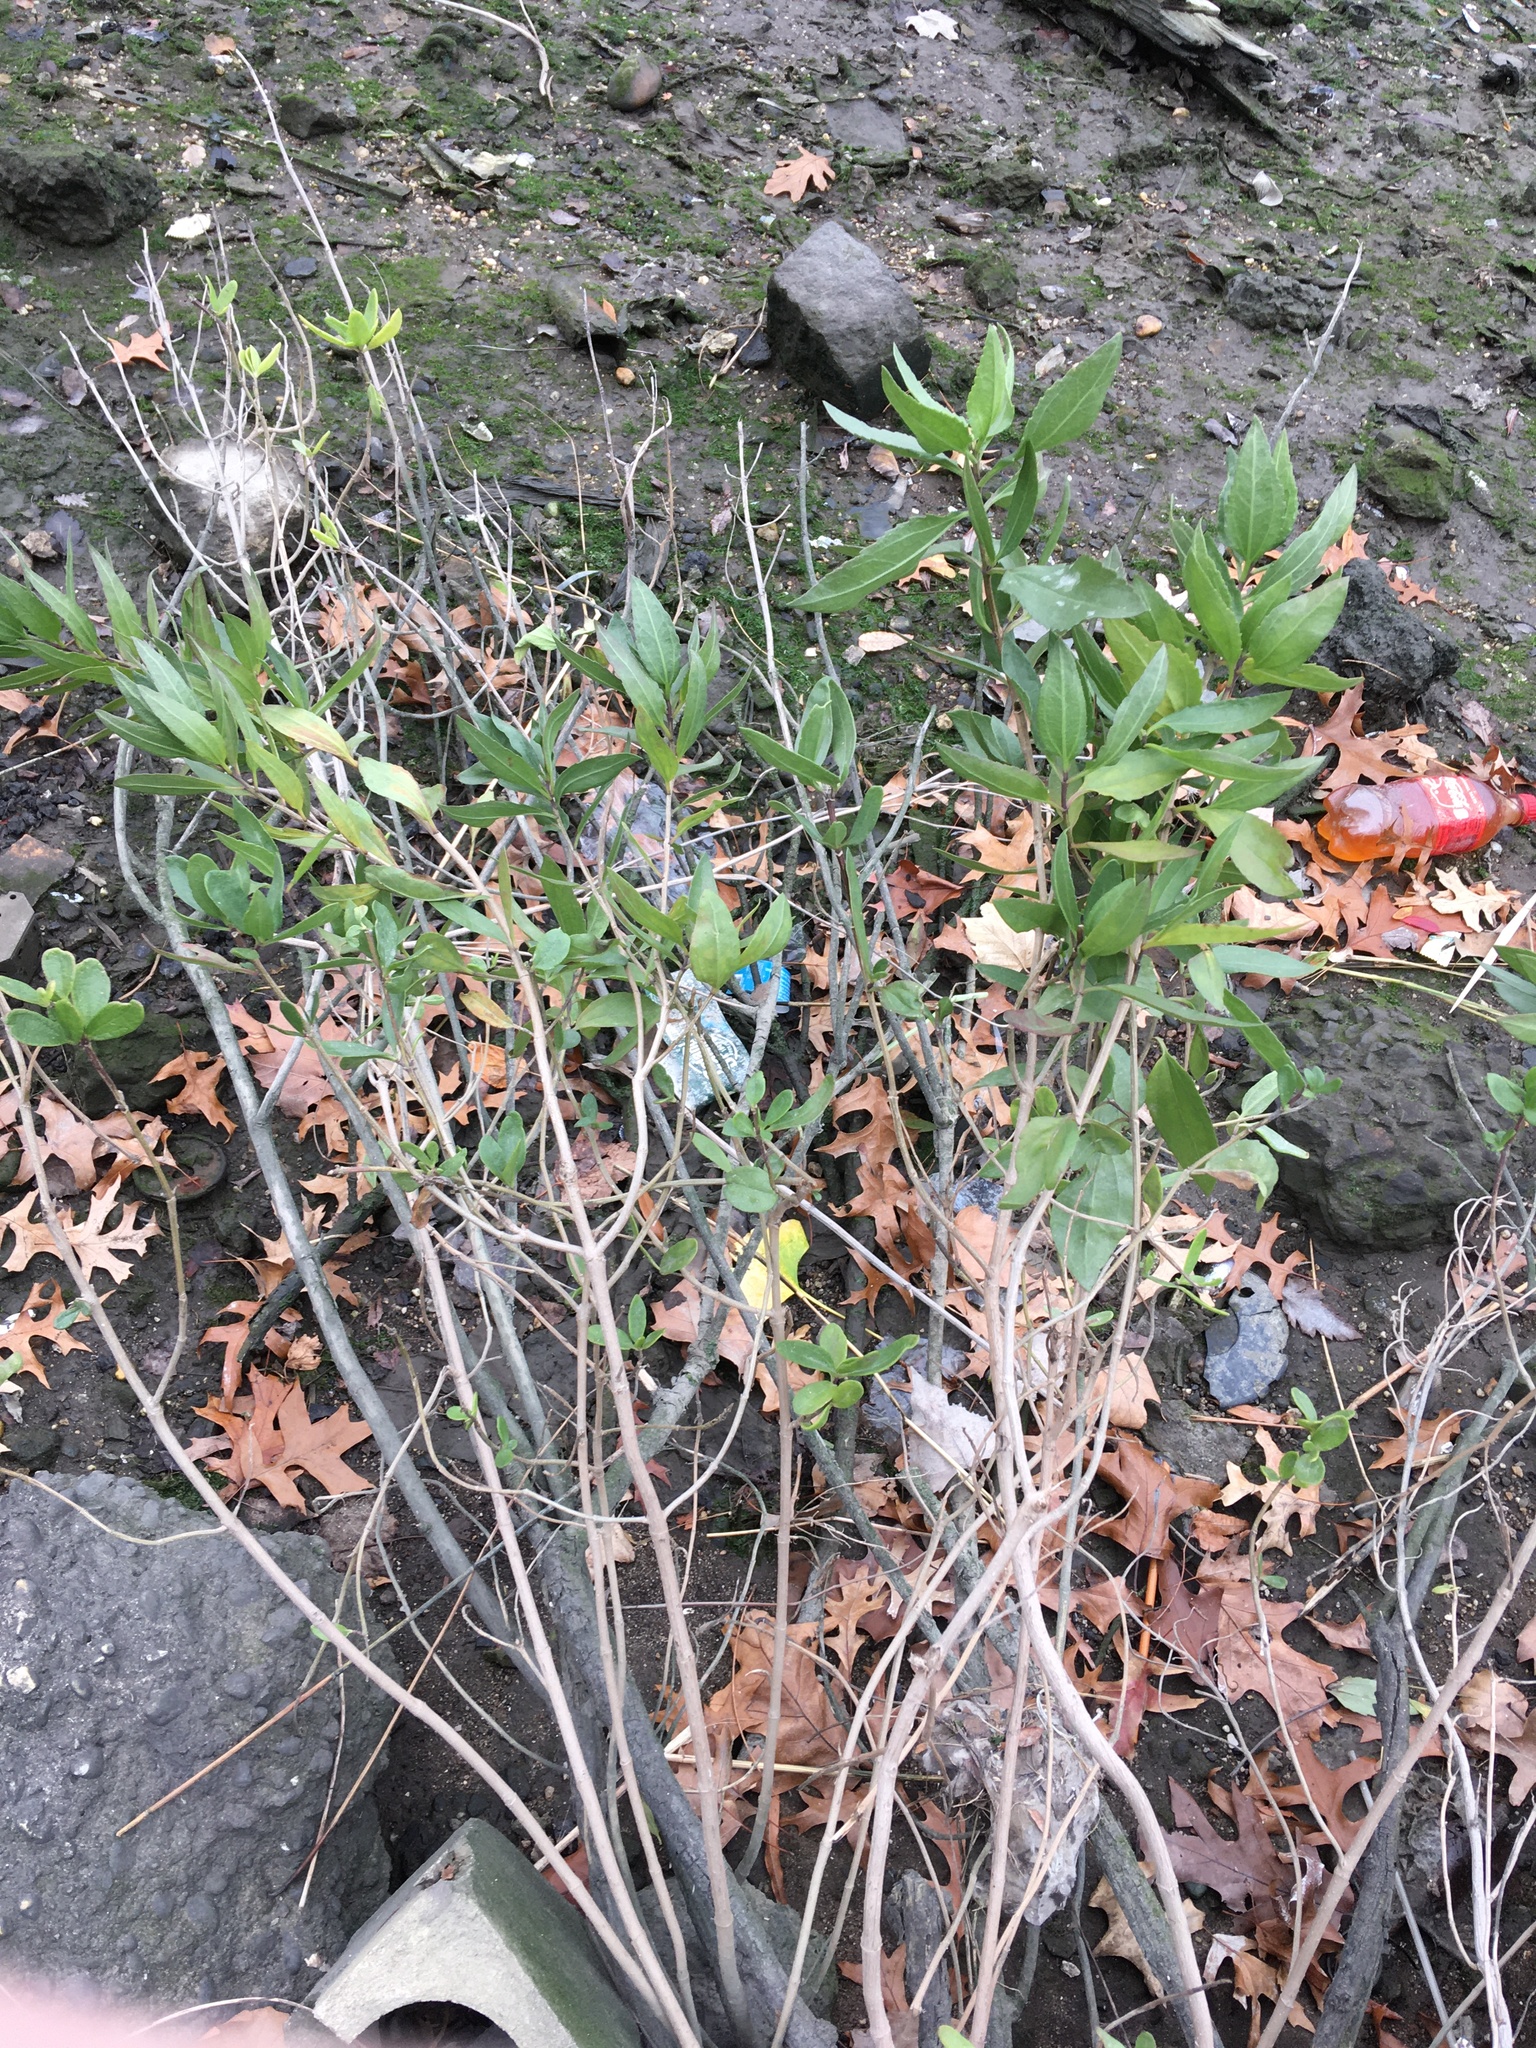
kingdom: Plantae
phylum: Tracheophyta
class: Magnoliopsida
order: Asterales
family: Asteraceae
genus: Iva
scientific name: Iva frutescens
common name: Big-leaved marsh-elder
